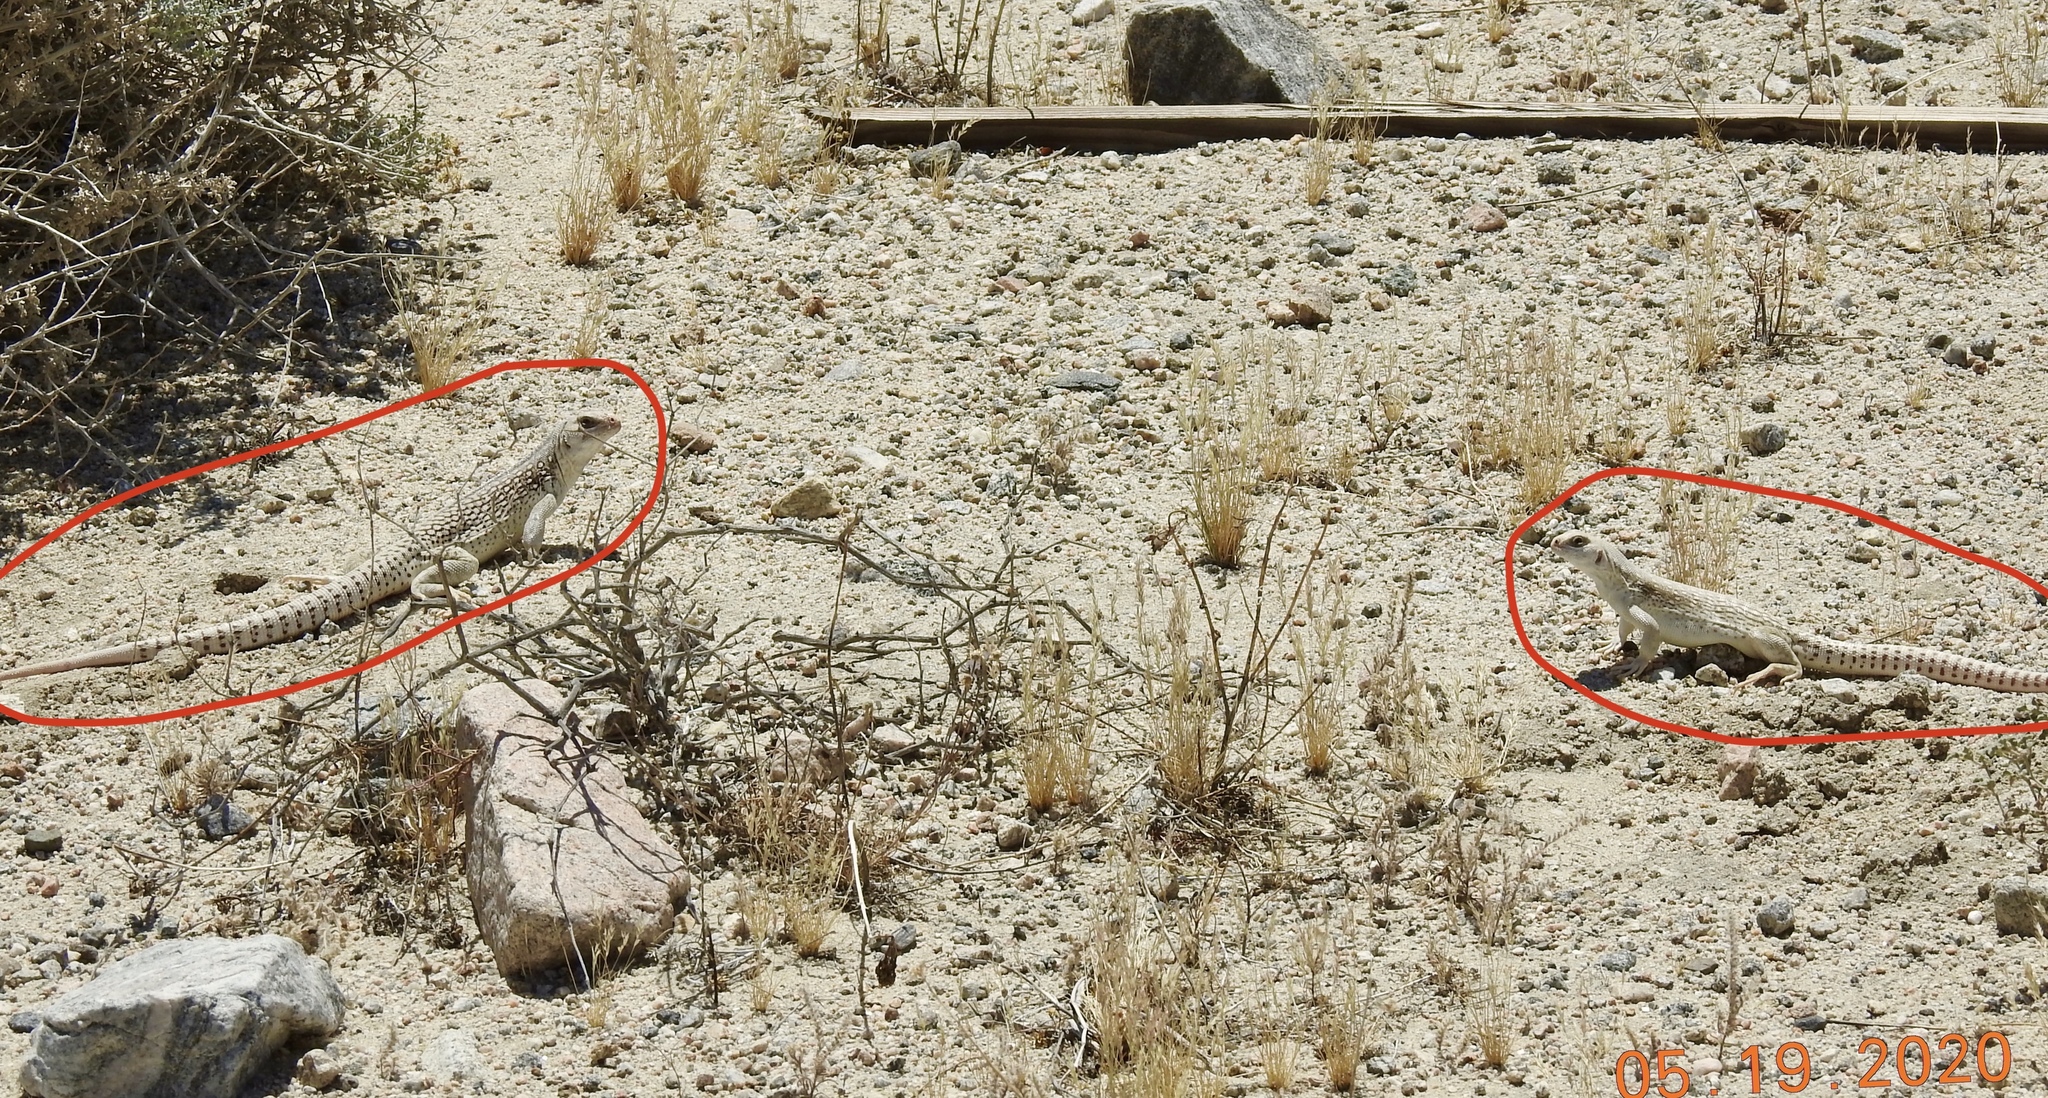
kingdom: Animalia
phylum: Chordata
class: Squamata
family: Iguanidae
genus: Dipsosaurus
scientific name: Dipsosaurus dorsalis
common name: Desert iguana
